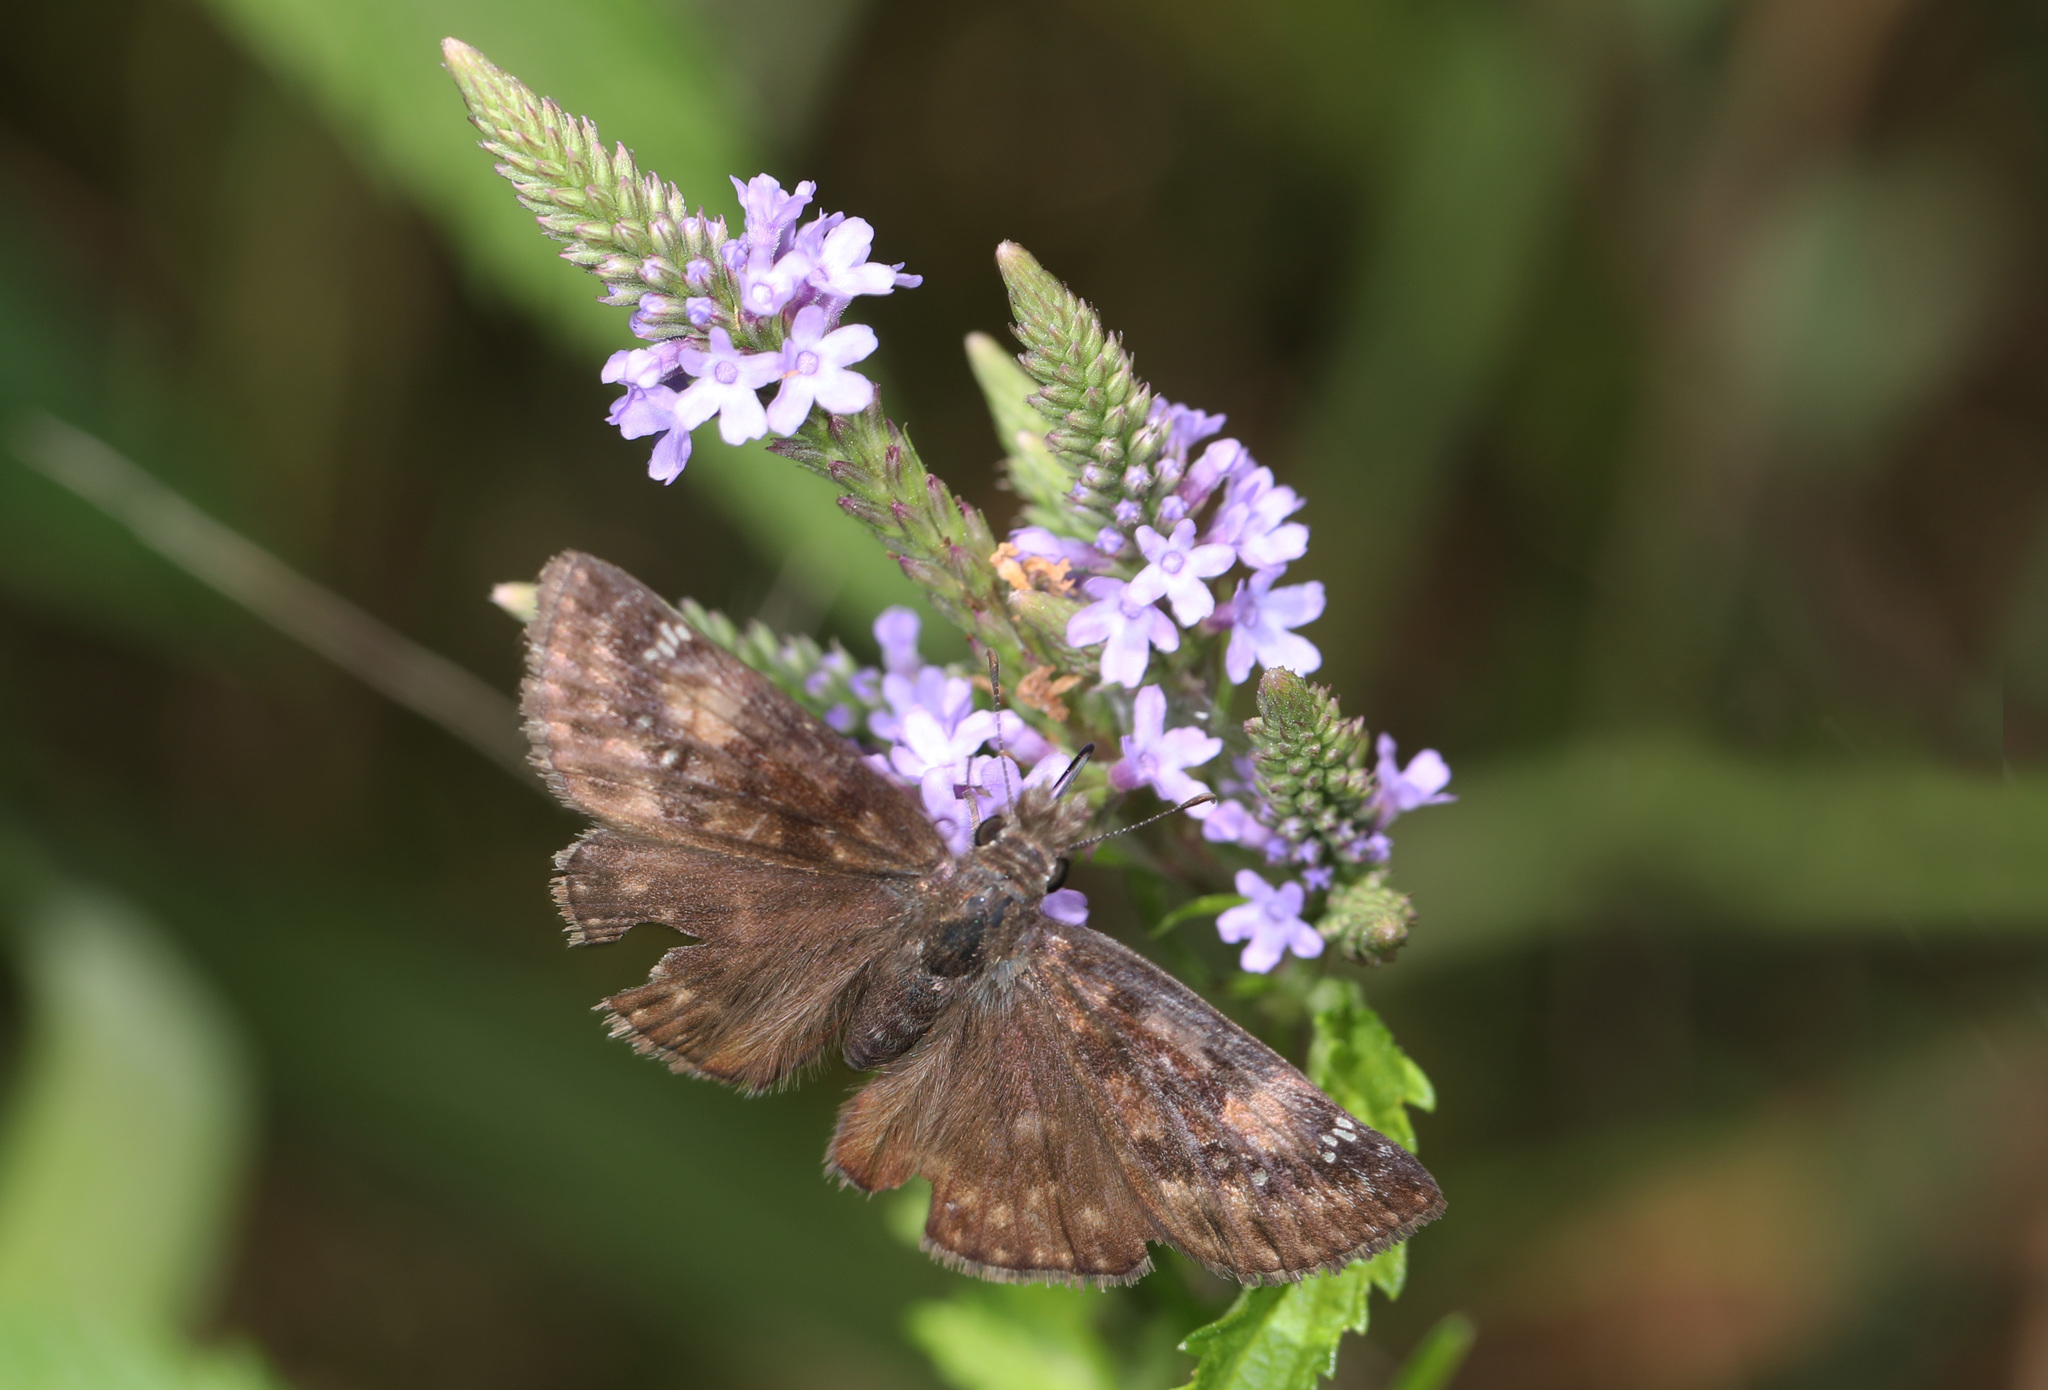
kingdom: Animalia
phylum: Arthropoda
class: Insecta
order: Lepidoptera
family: Hesperiidae
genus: Erynnis
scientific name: Erynnis baptisiae
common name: Wild indigo duskywing
